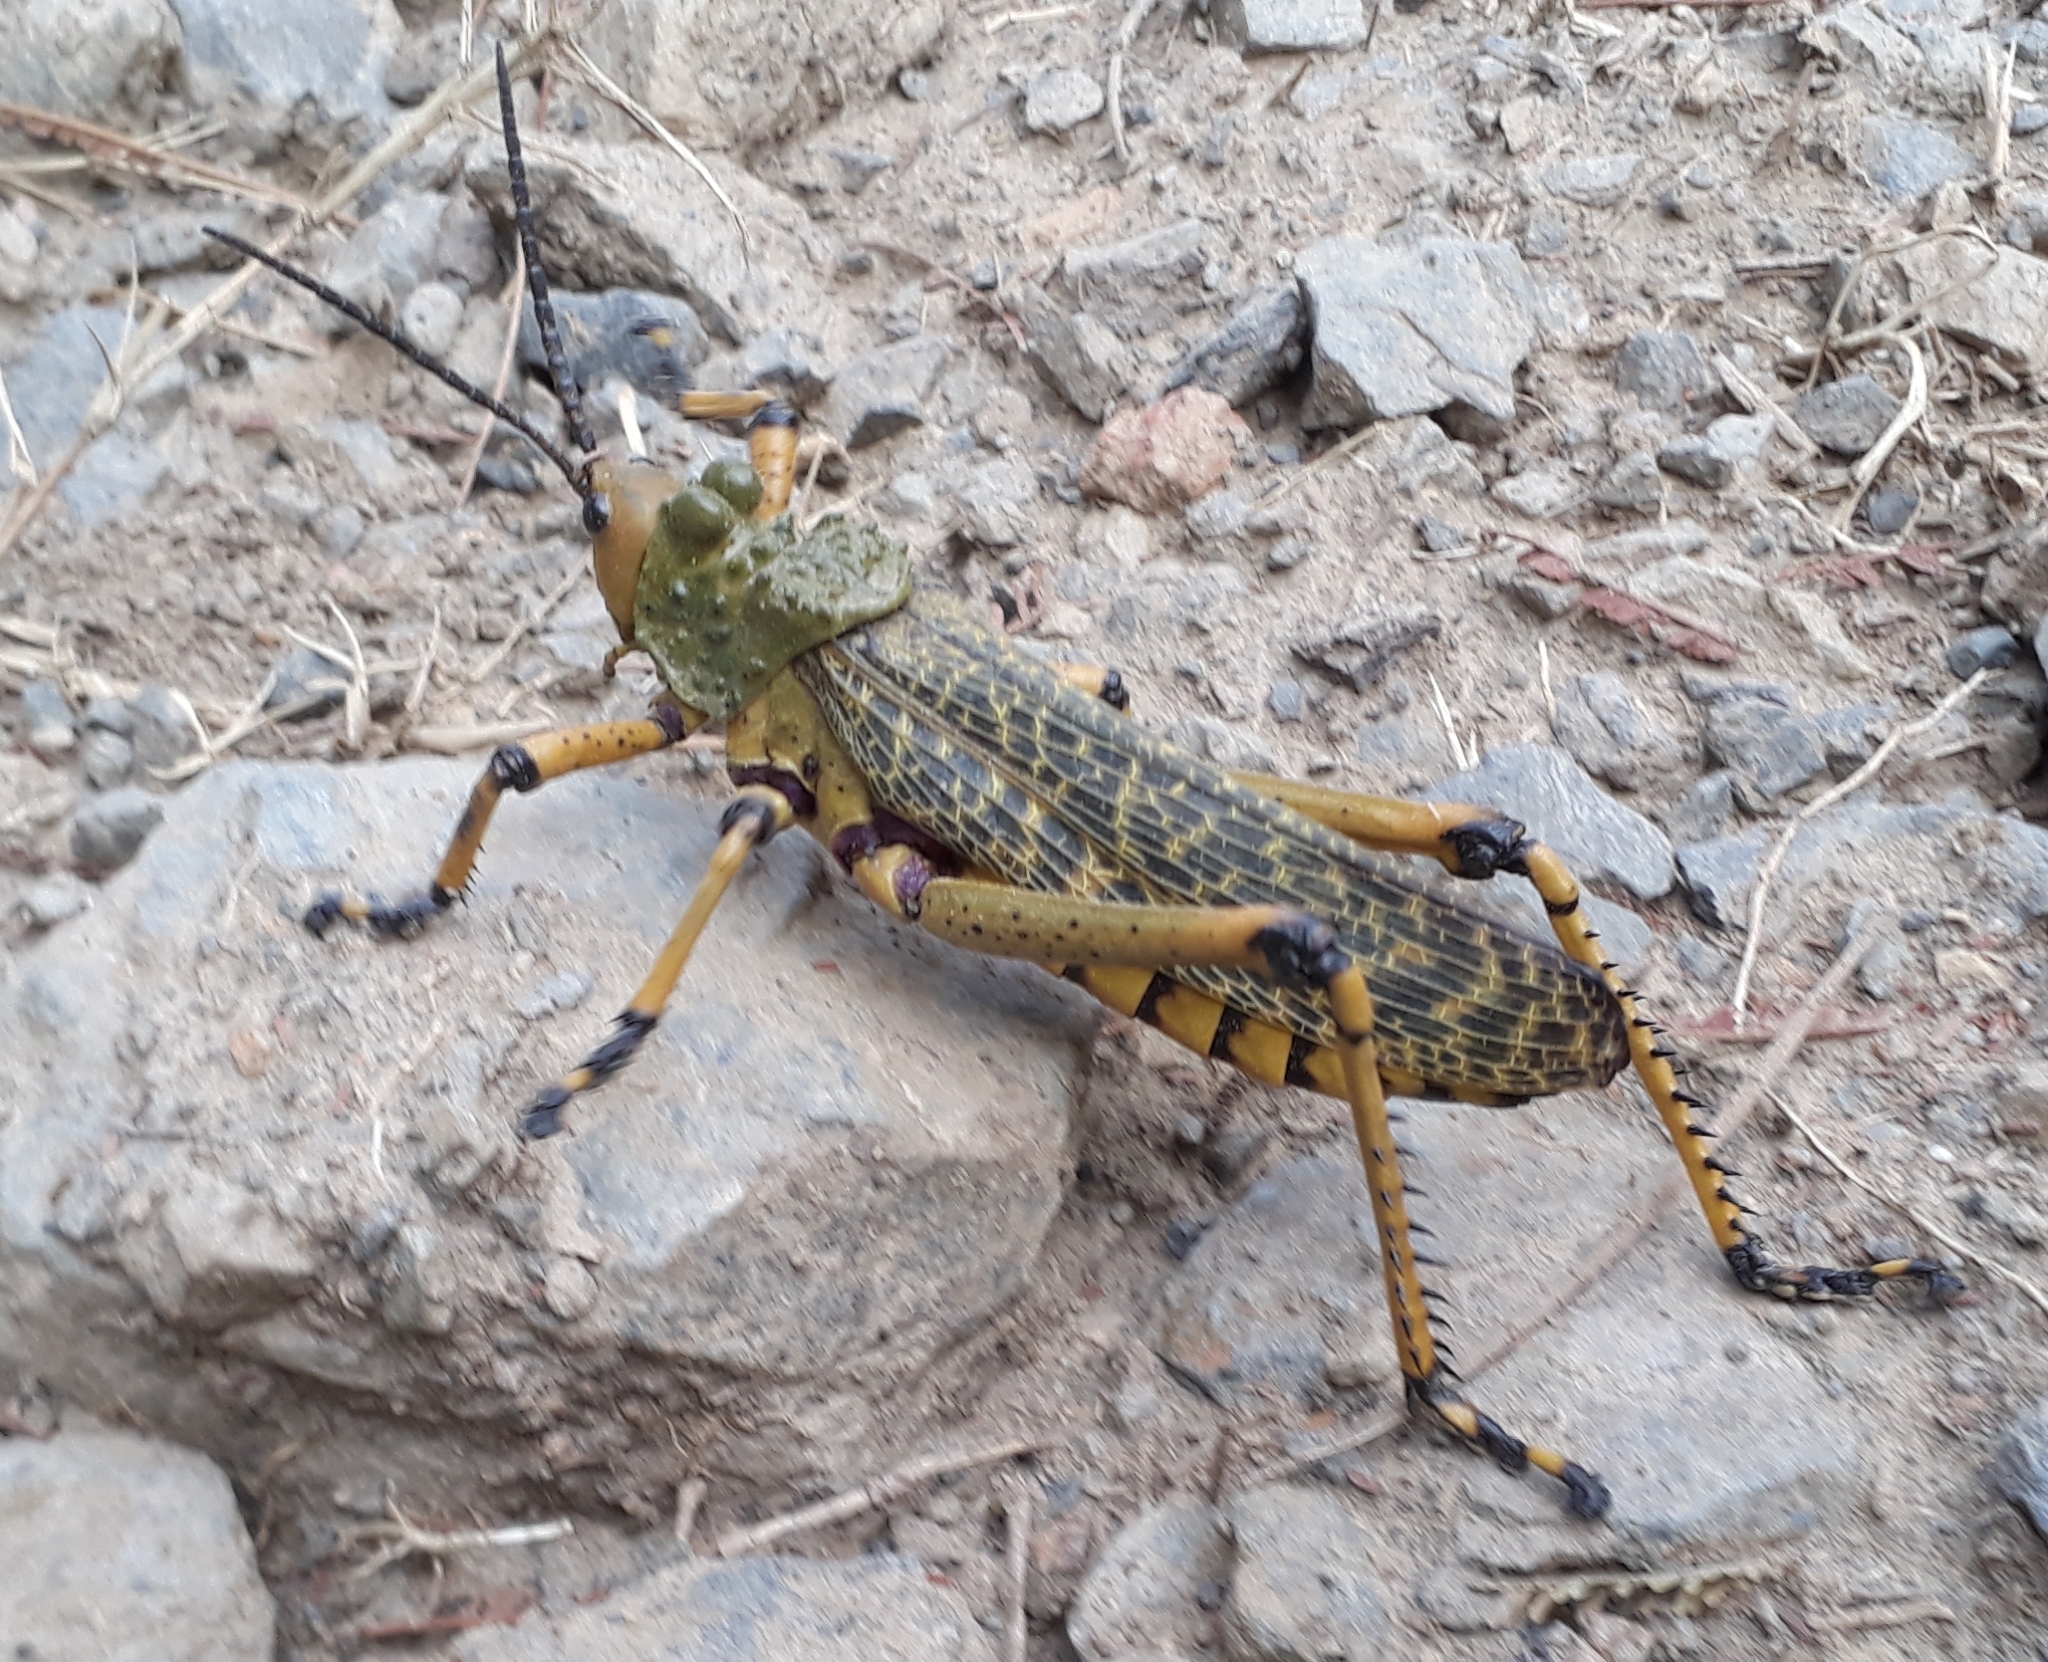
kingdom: Animalia
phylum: Arthropoda
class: Insecta
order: Orthoptera
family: Pyrgomorphidae
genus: Phymateus
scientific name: Phymateus leprosus
